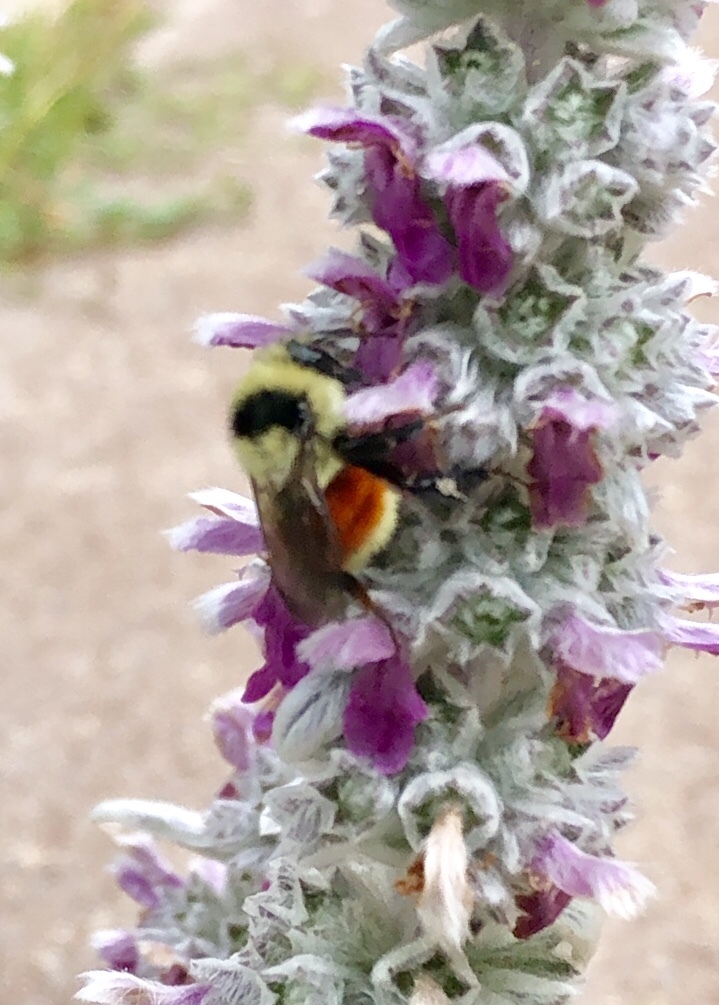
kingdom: Animalia
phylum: Arthropoda
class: Insecta
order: Hymenoptera
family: Apidae
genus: Bombus
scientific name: Bombus huntii
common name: Hunt bumble bee
